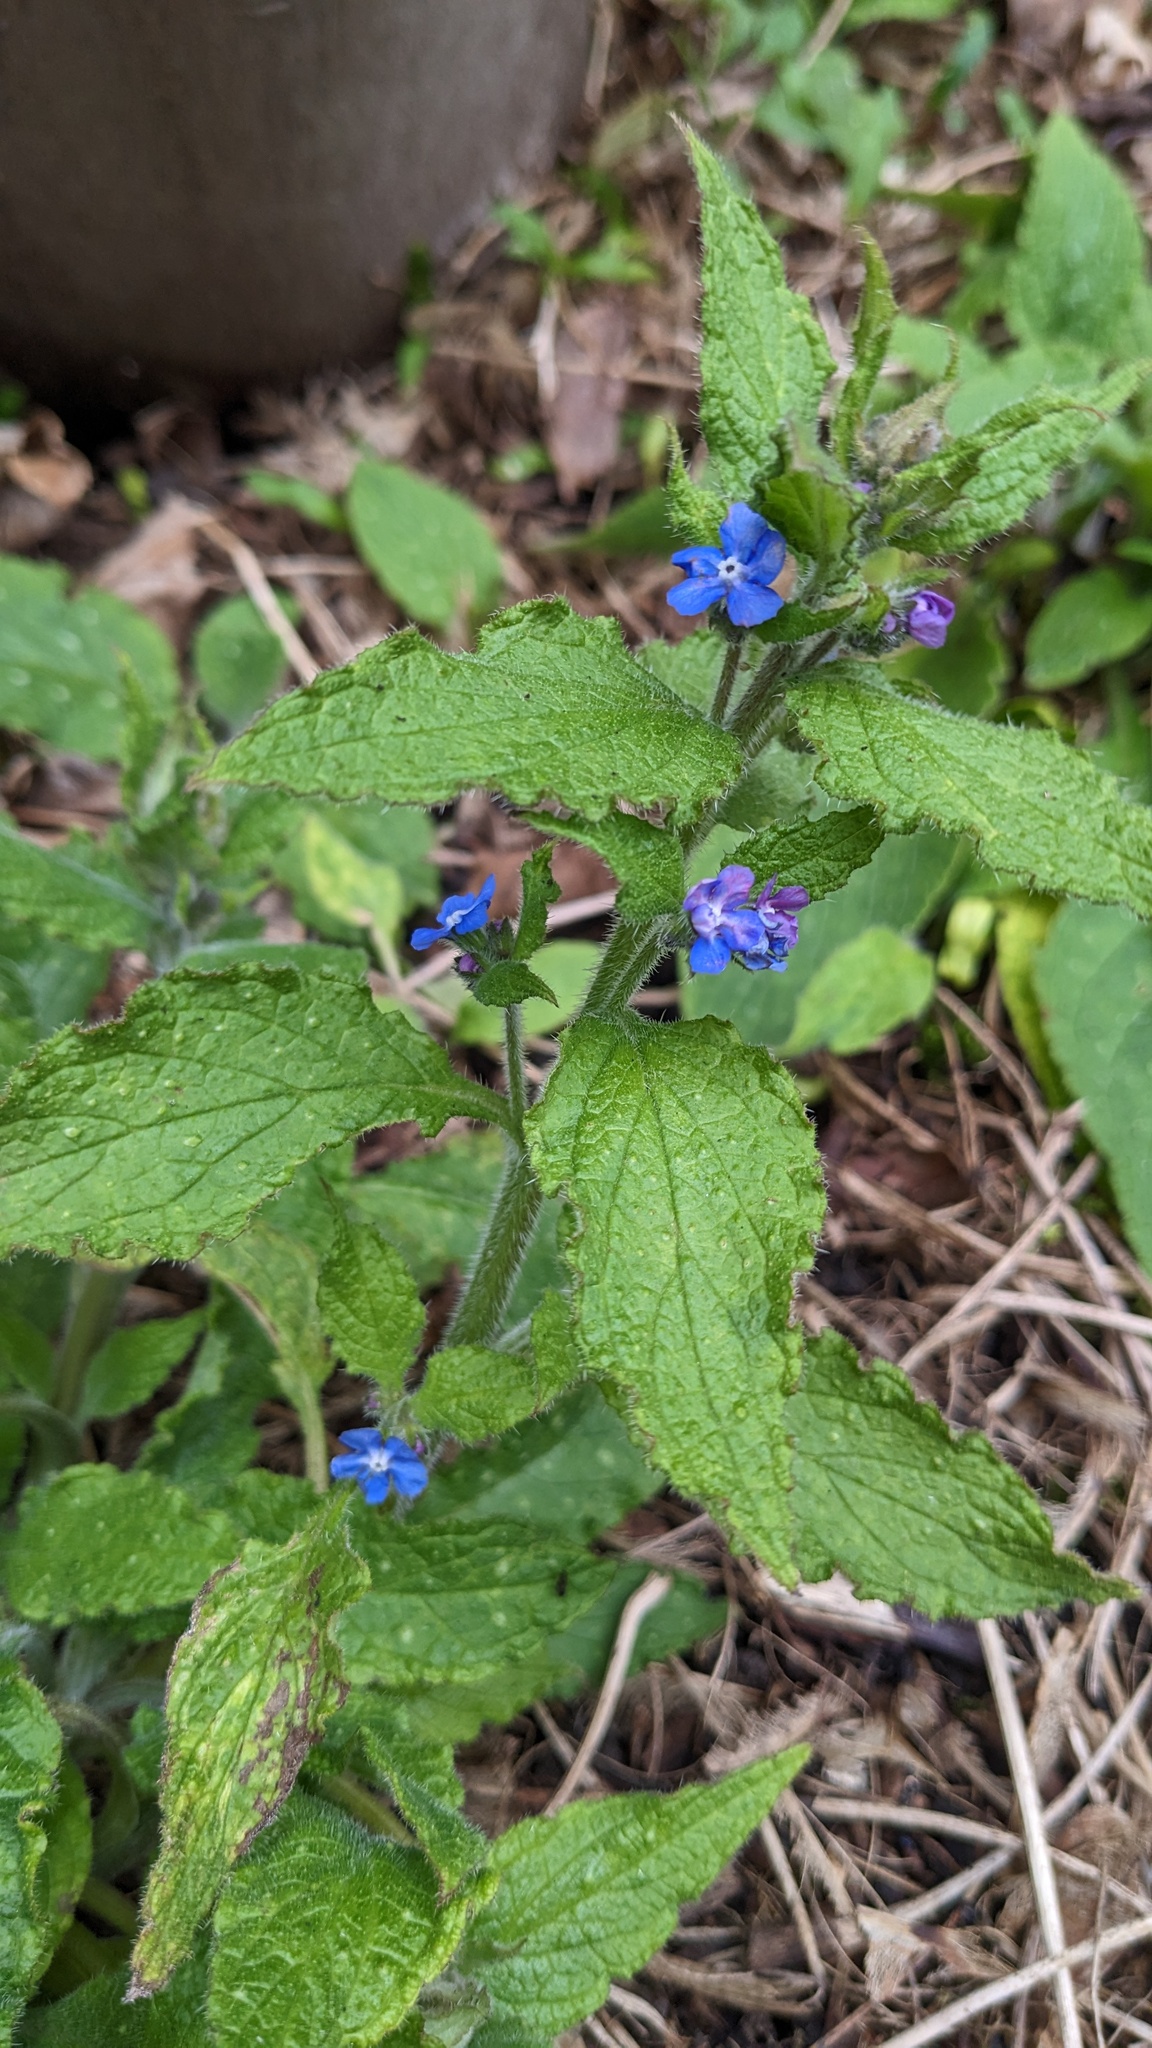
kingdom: Plantae
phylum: Tracheophyta
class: Magnoliopsida
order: Boraginales
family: Boraginaceae
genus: Pentaglottis
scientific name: Pentaglottis sempervirens
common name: Green alkanet
